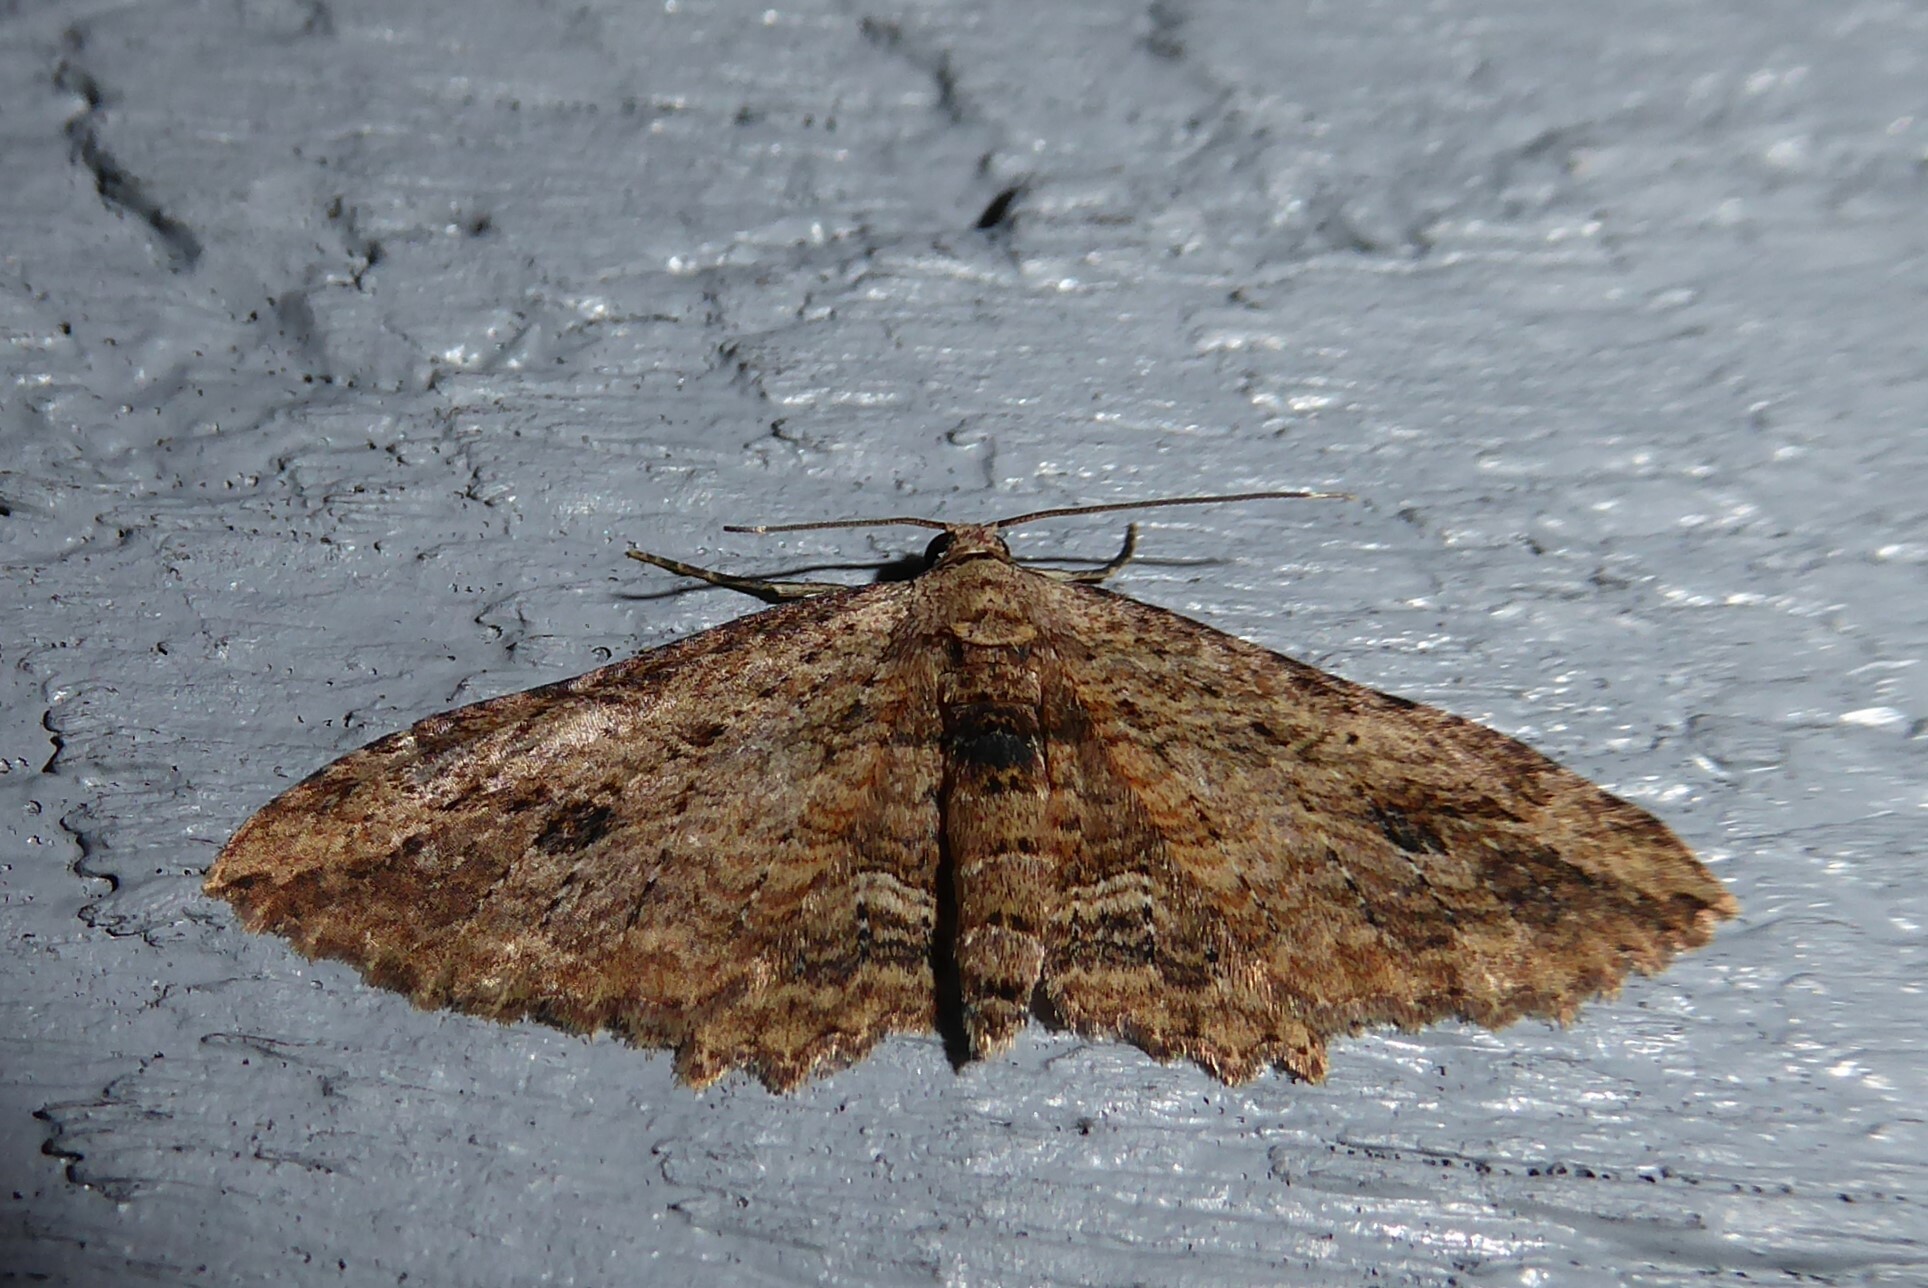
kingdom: Animalia
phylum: Arthropoda
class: Insecta
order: Lepidoptera
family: Geometridae
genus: Austrocidaria
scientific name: Austrocidaria bipartita
